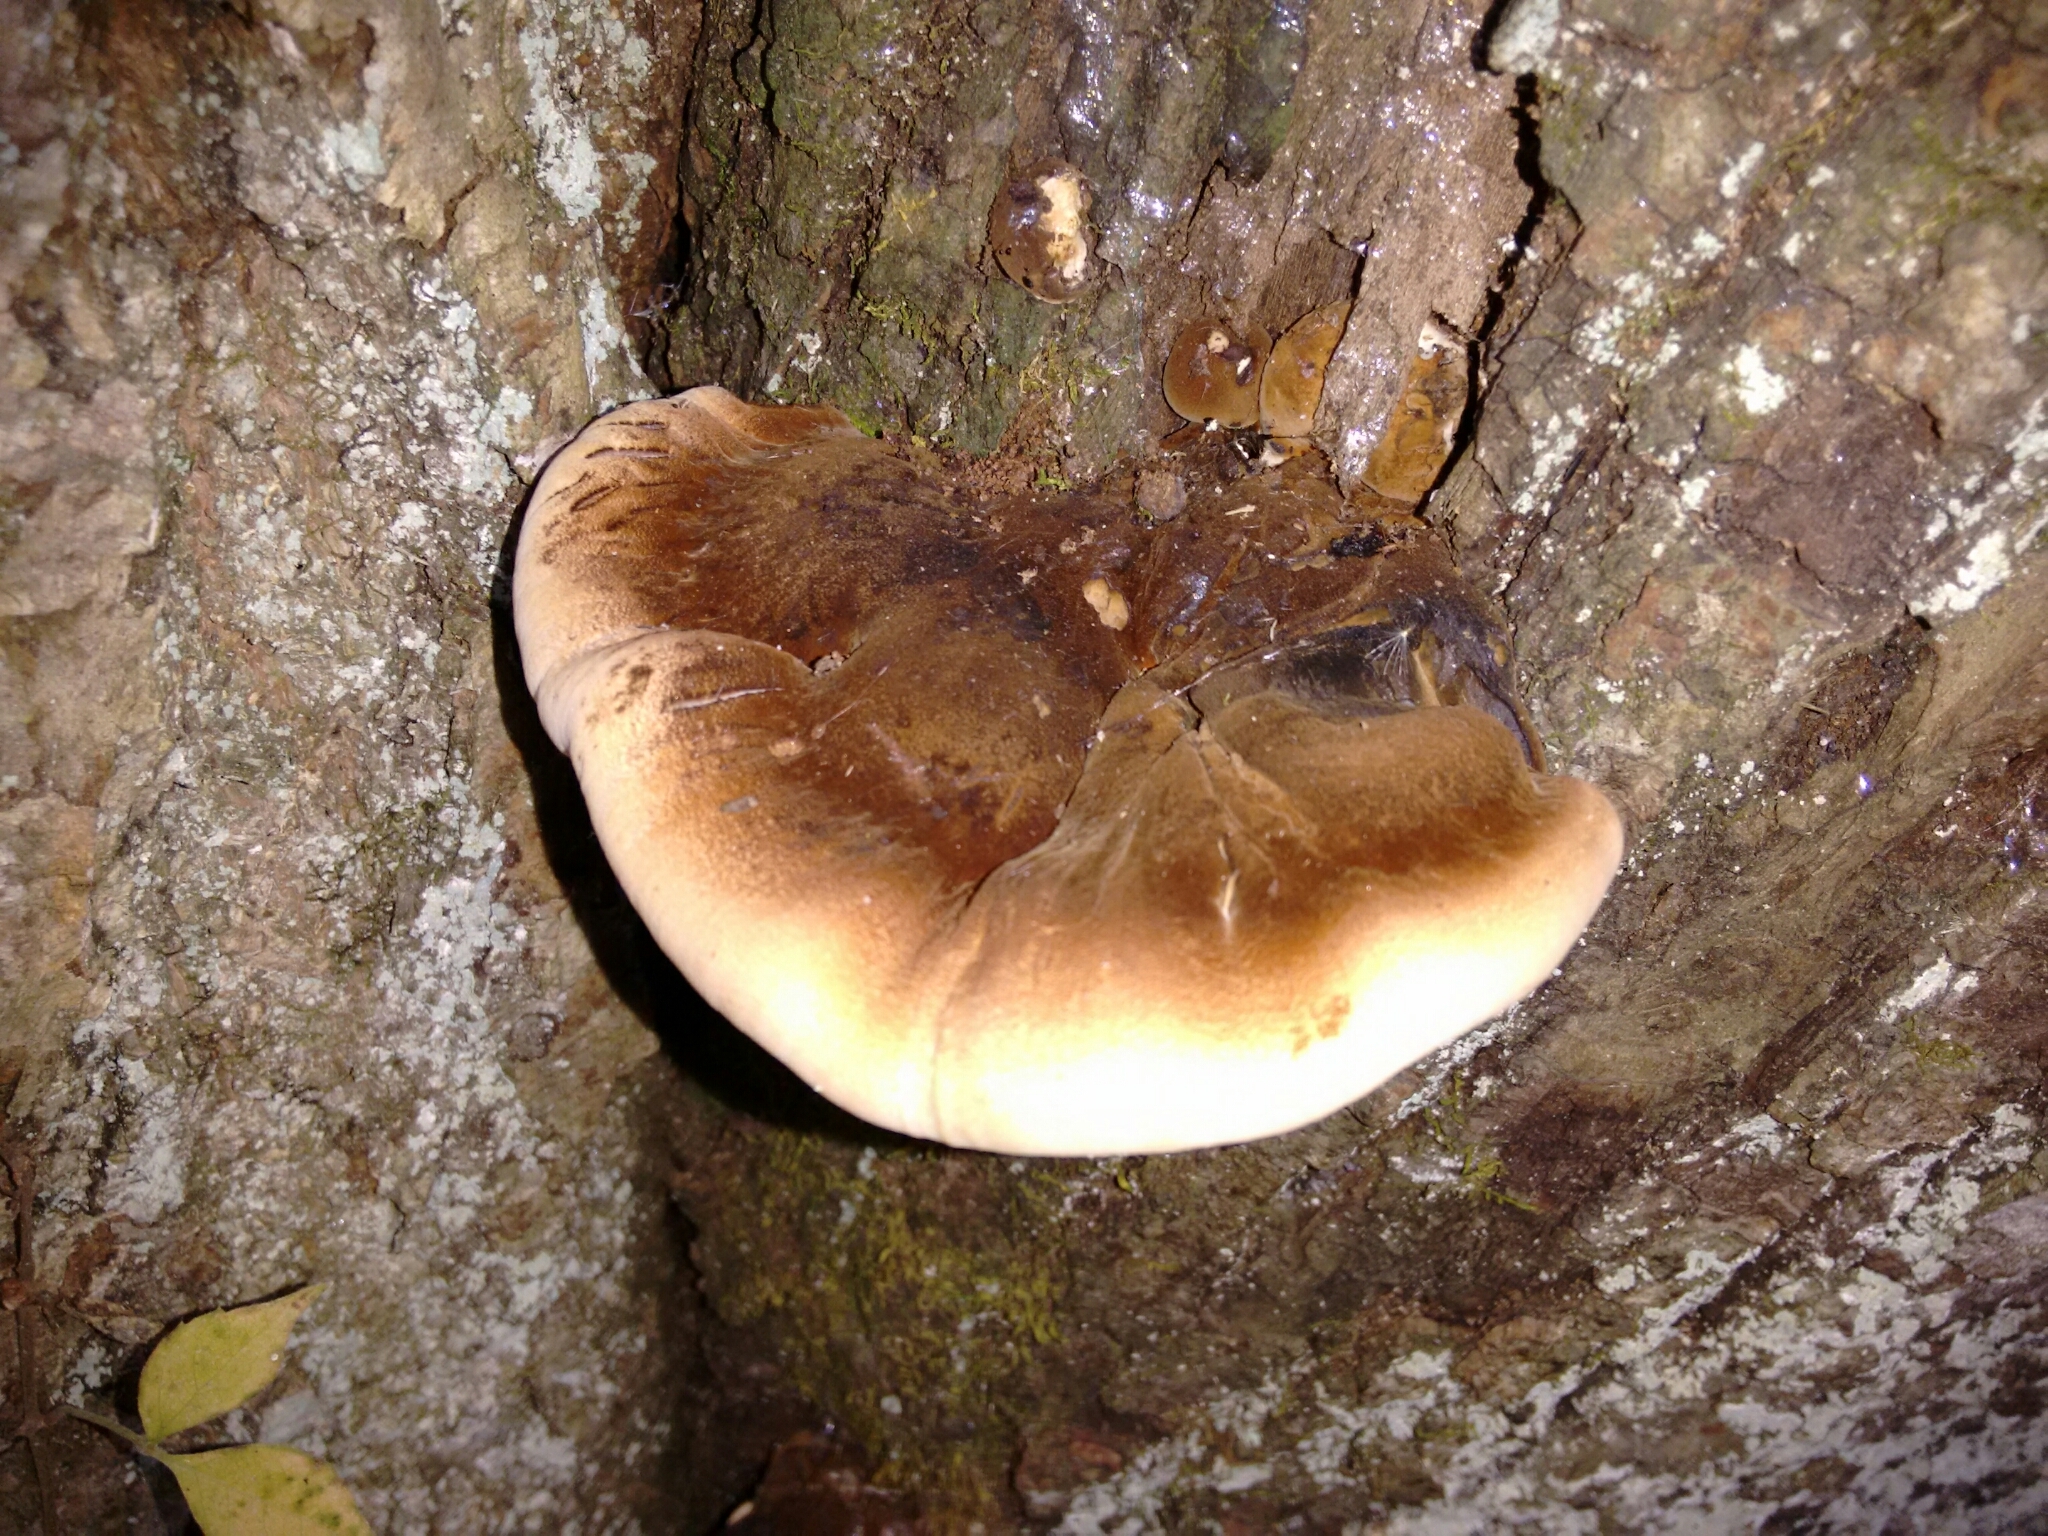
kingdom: Fungi
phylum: Basidiomycota
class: Agaricomycetes
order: Polyporales
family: Ischnodermataceae
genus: Ischnoderma
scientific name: Ischnoderma resinosum
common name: Resinous polypore
